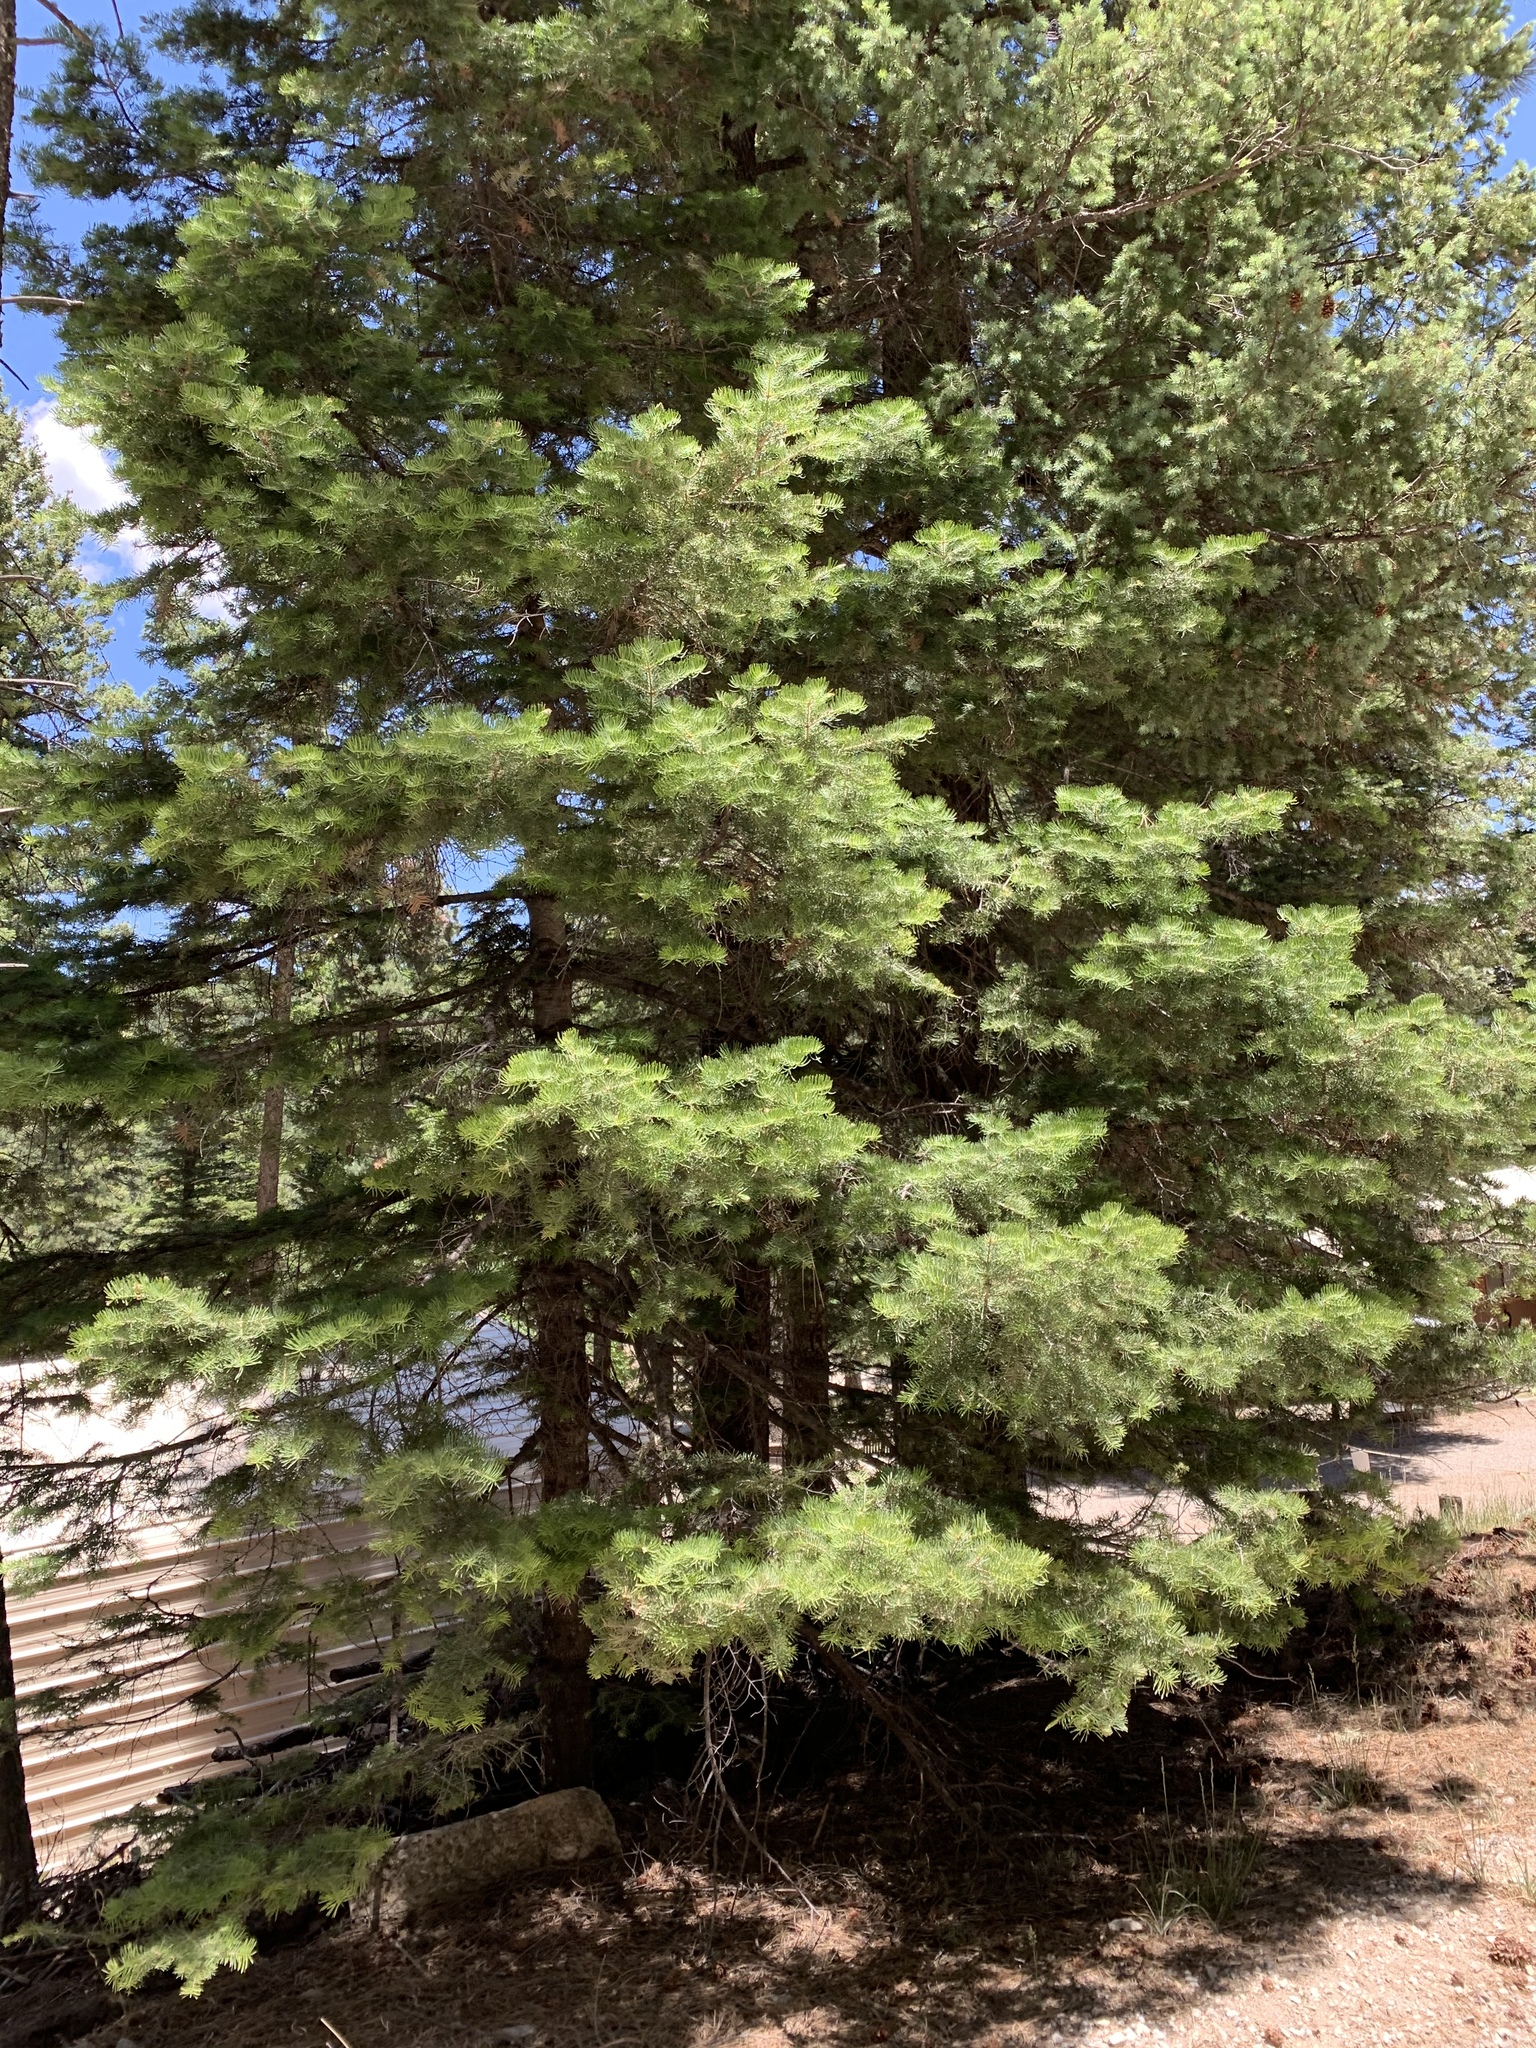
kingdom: Plantae
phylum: Tracheophyta
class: Pinopsida
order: Pinales
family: Pinaceae
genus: Abies
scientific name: Abies concolor
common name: Colorado fir
